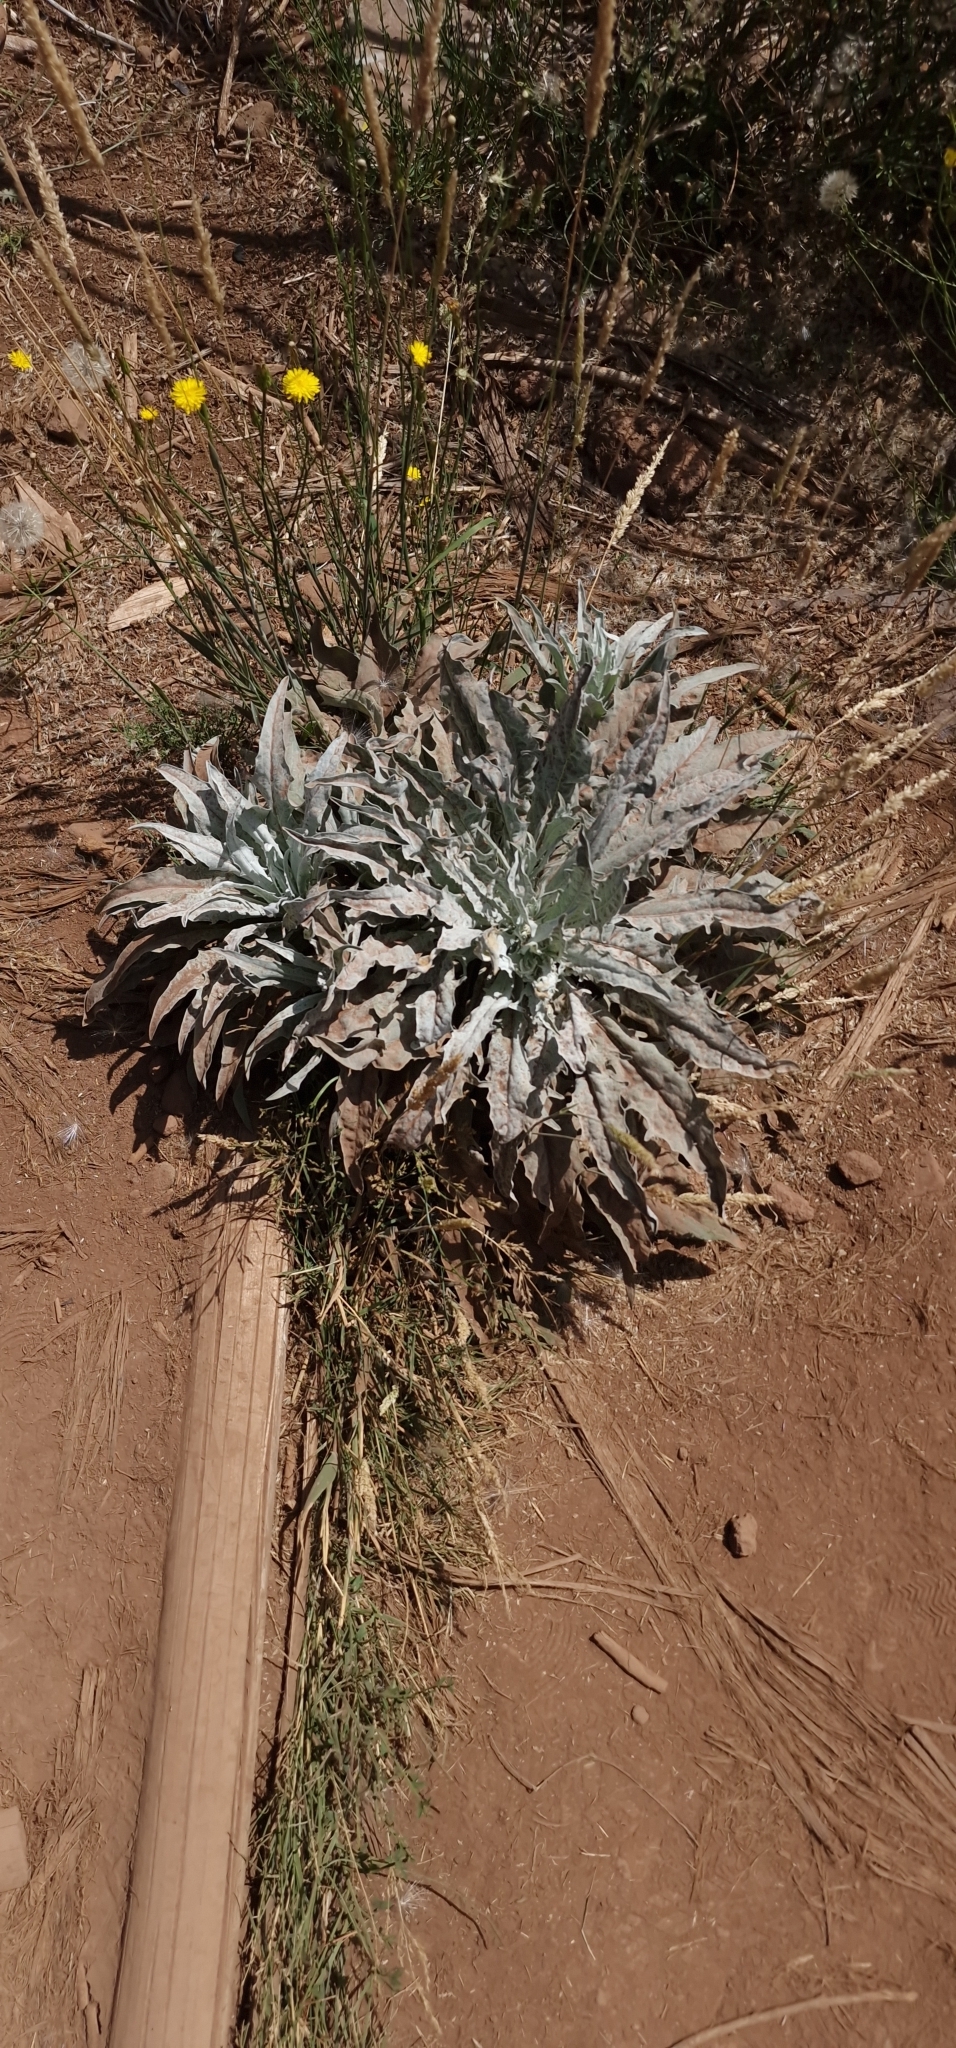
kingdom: Plantae
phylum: Tracheophyta
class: Magnoliopsida
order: Asterales
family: Asteraceae
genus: Andryala
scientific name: Andryala glandulosa
